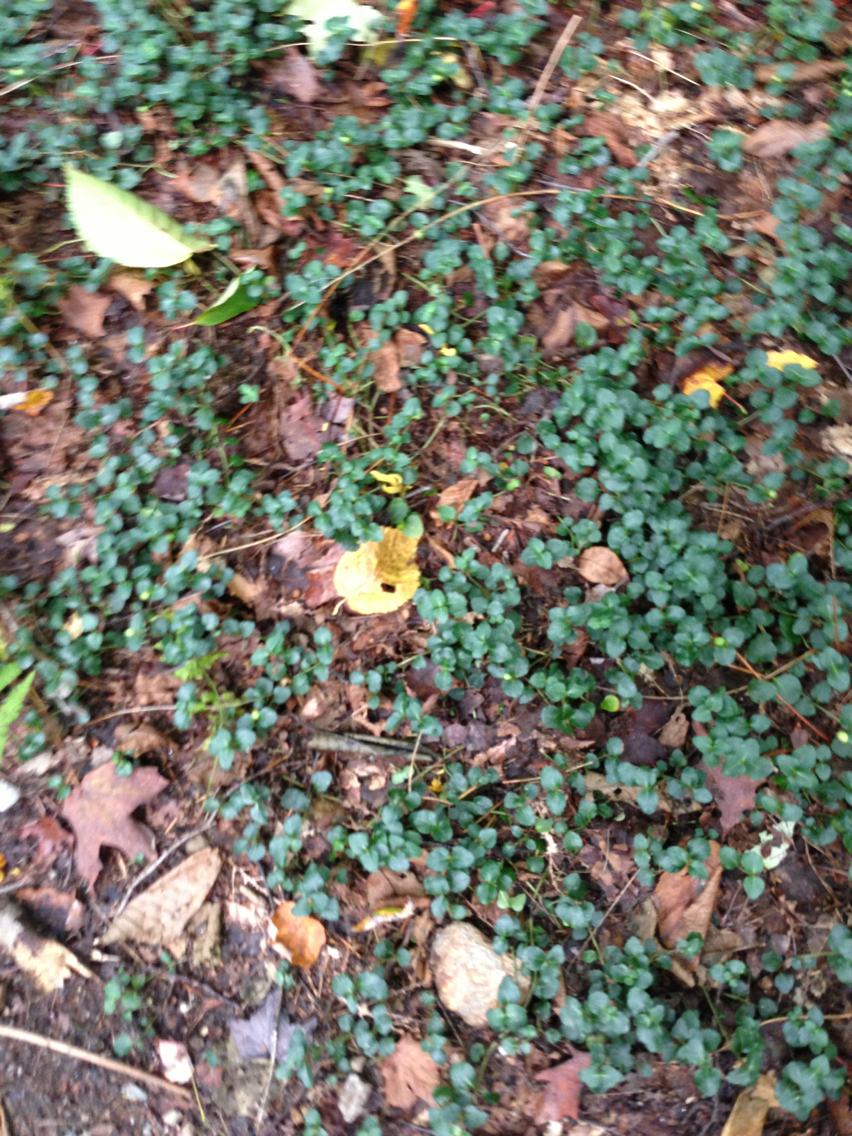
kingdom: Plantae
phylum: Tracheophyta
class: Magnoliopsida
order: Gentianales
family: Rubiaceae
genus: Mitchella
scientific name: Mitchella repens
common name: Partridge-berry
